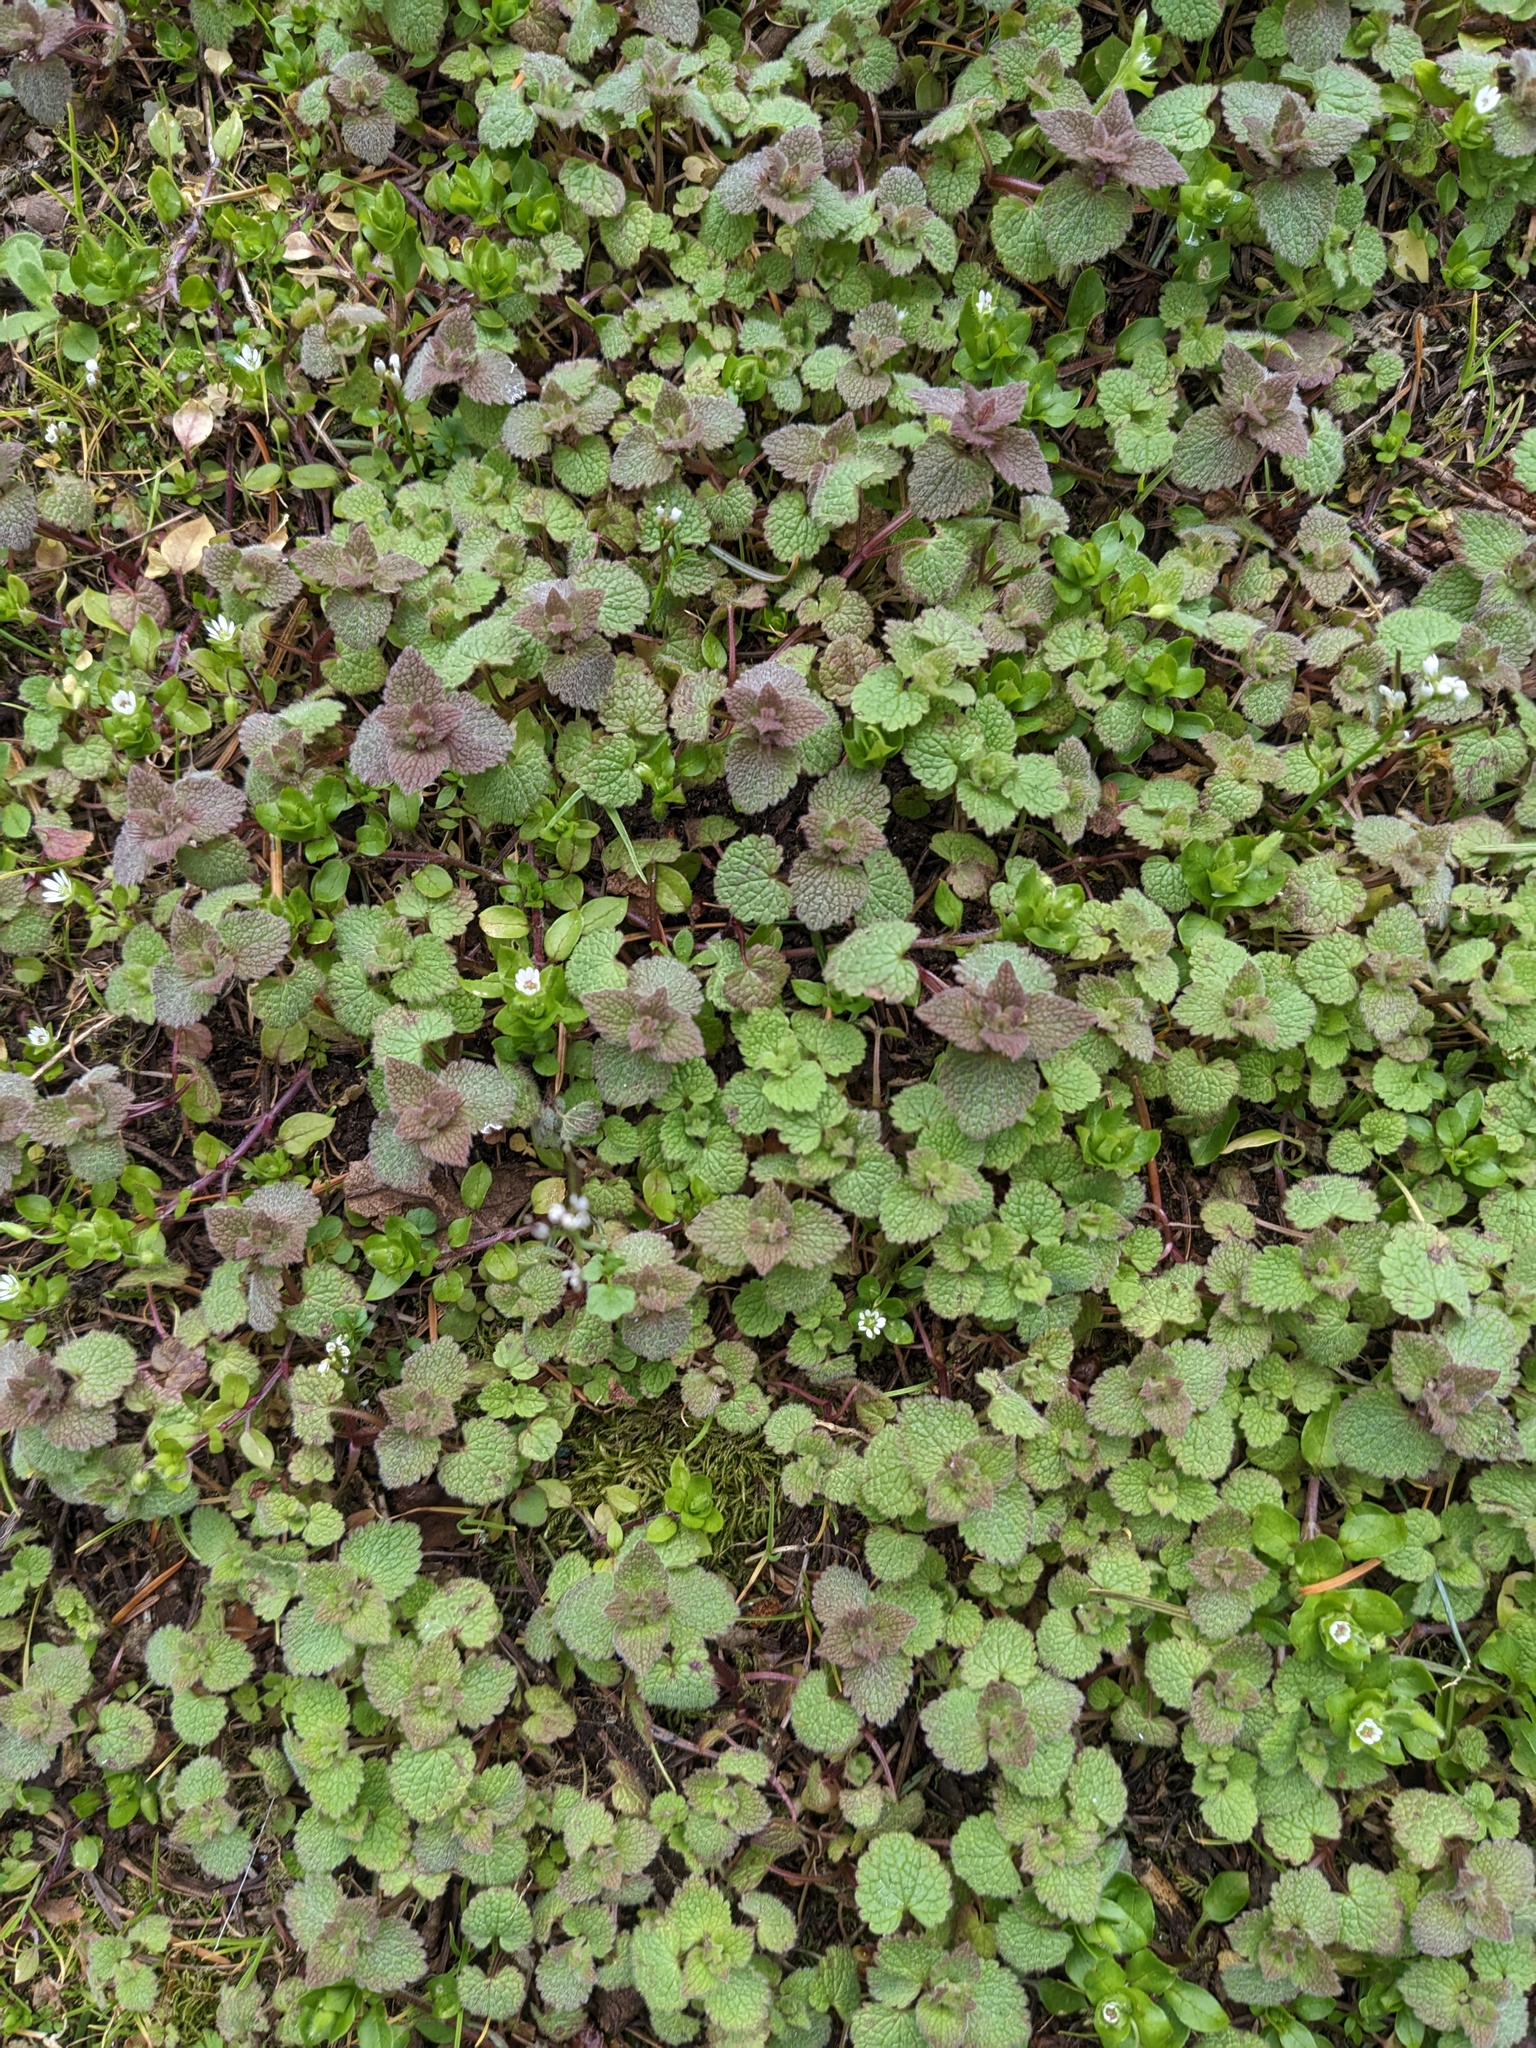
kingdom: Plantae
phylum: Tracheophyta
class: Magnoliopsida
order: Lamiales
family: Lamiaceae
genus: Lamium
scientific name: Lamium purpureum
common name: Red dead-nettle
